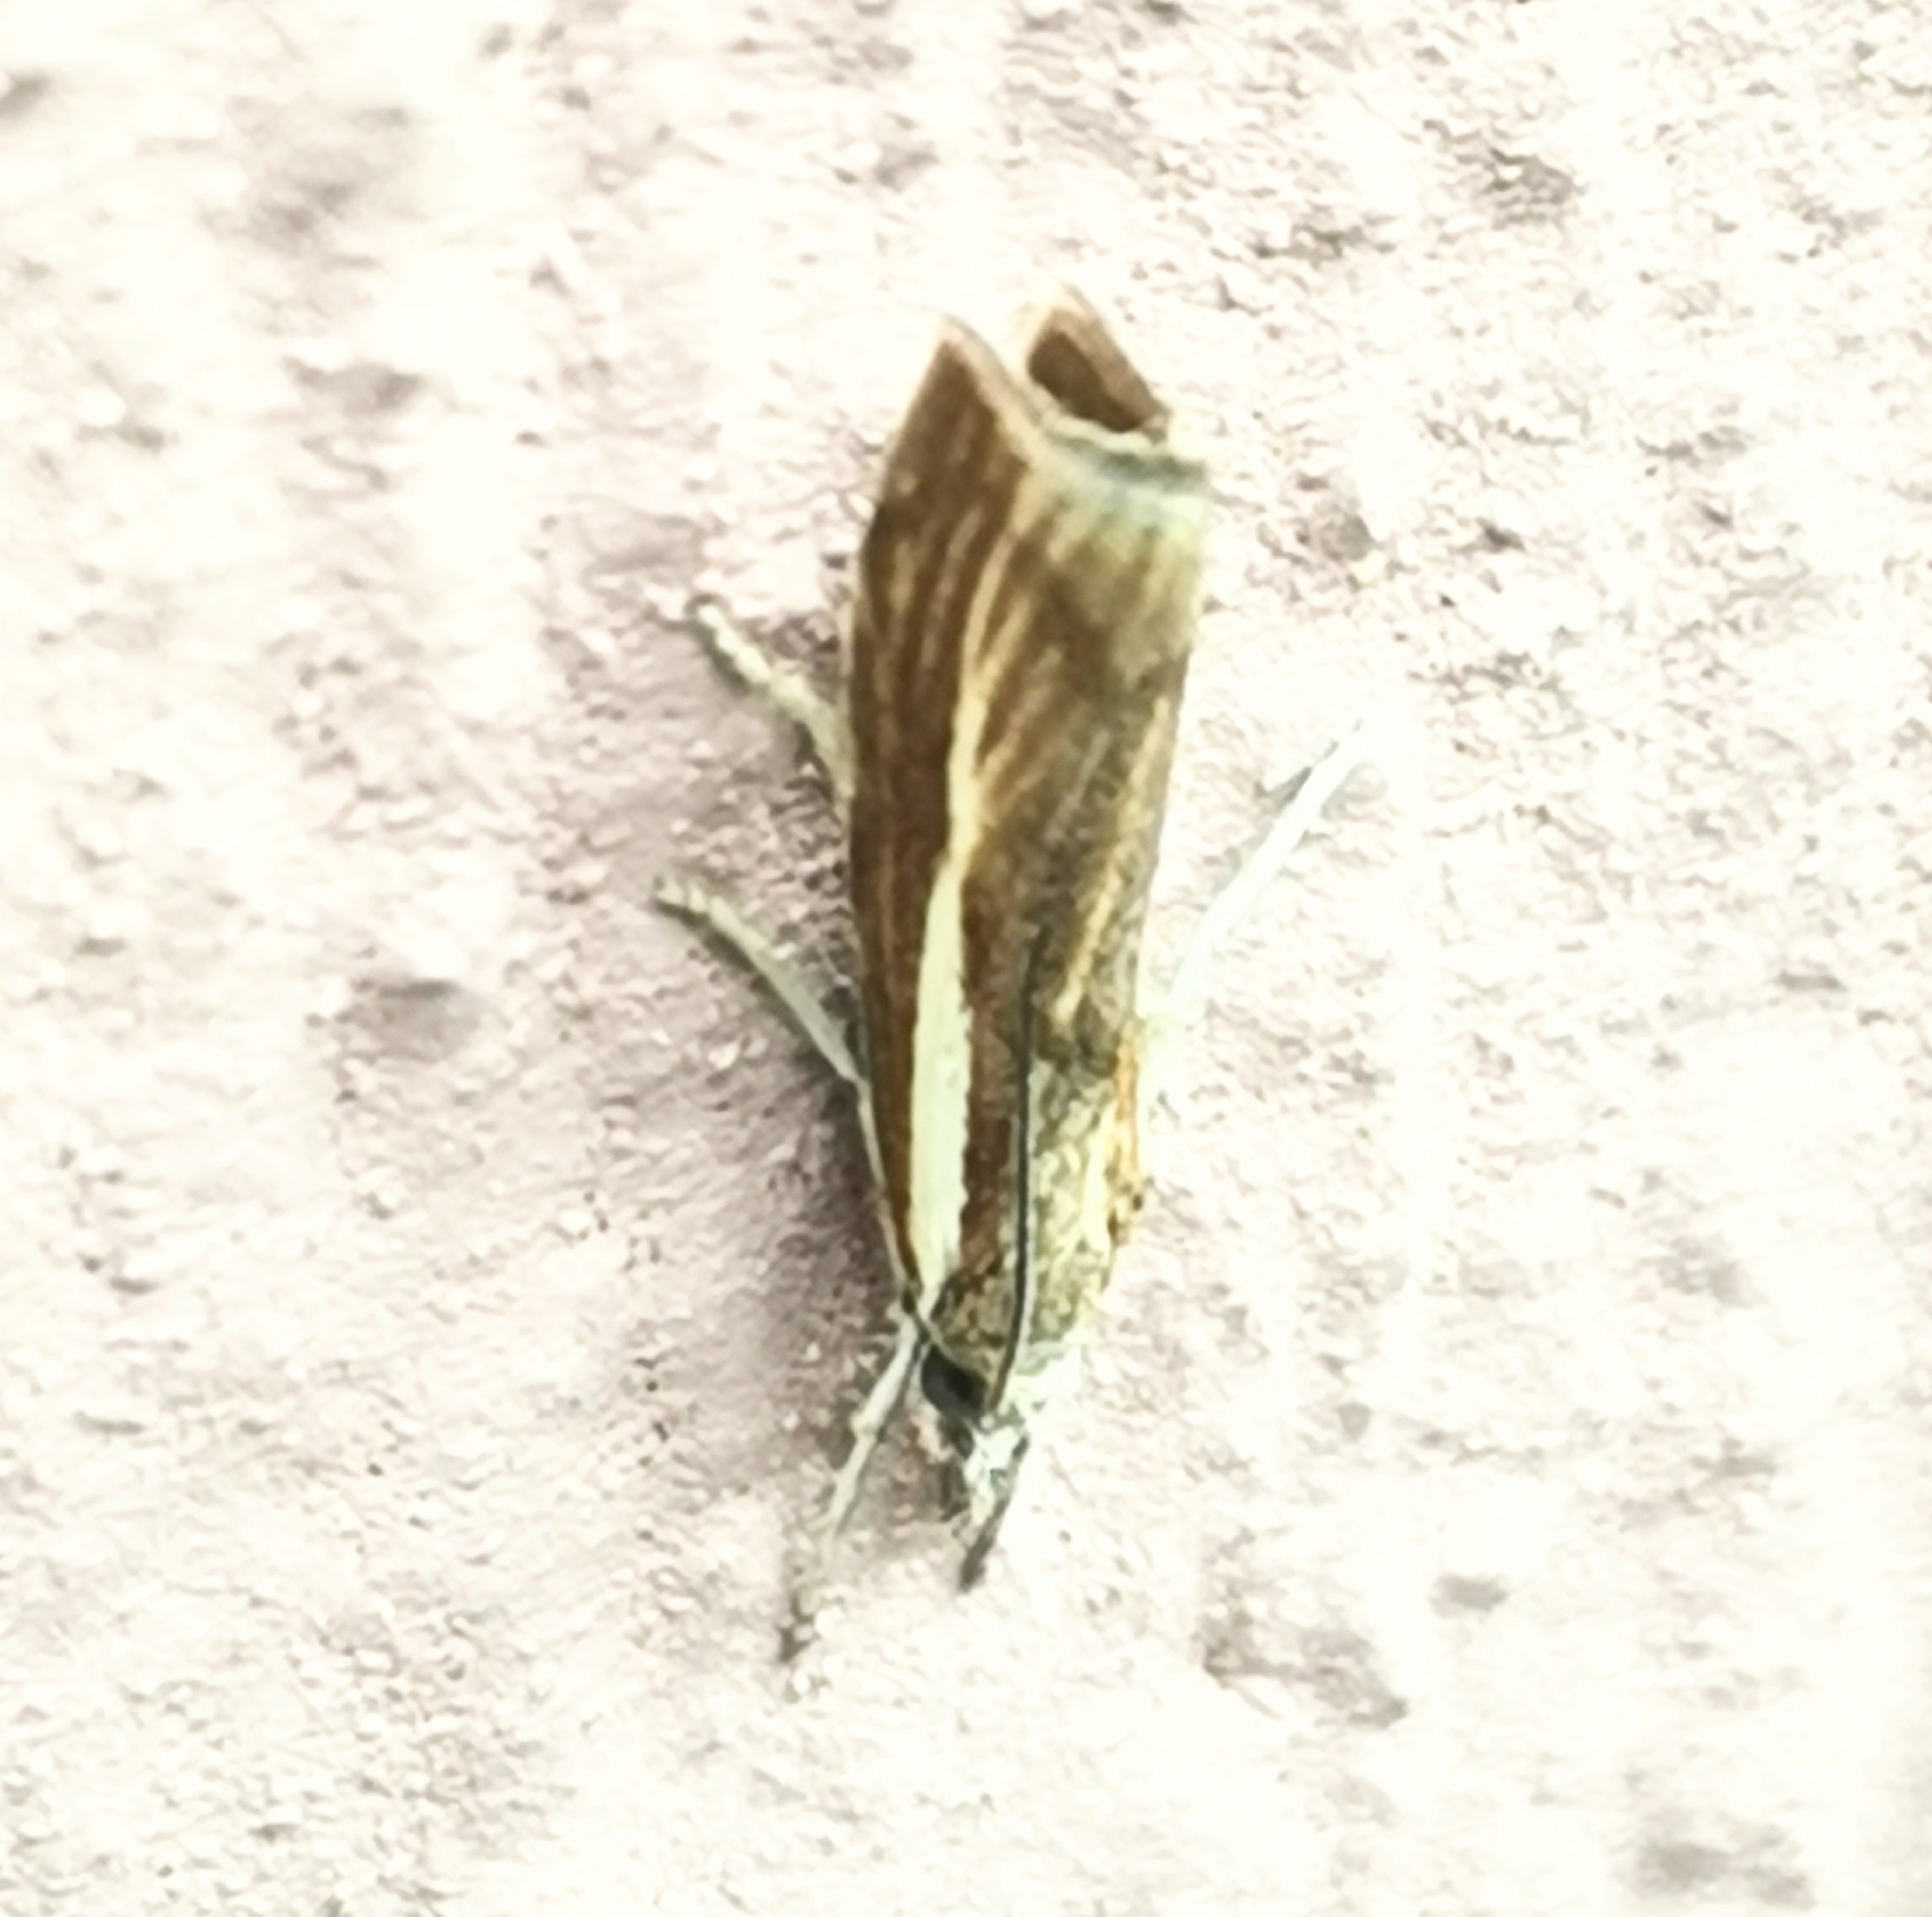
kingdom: Animalia
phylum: Arthropoda
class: Insecta
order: Lepidoptera
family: Crambidae
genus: Agriphila
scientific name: Agriphila tristellus
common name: Common grass-veneer
